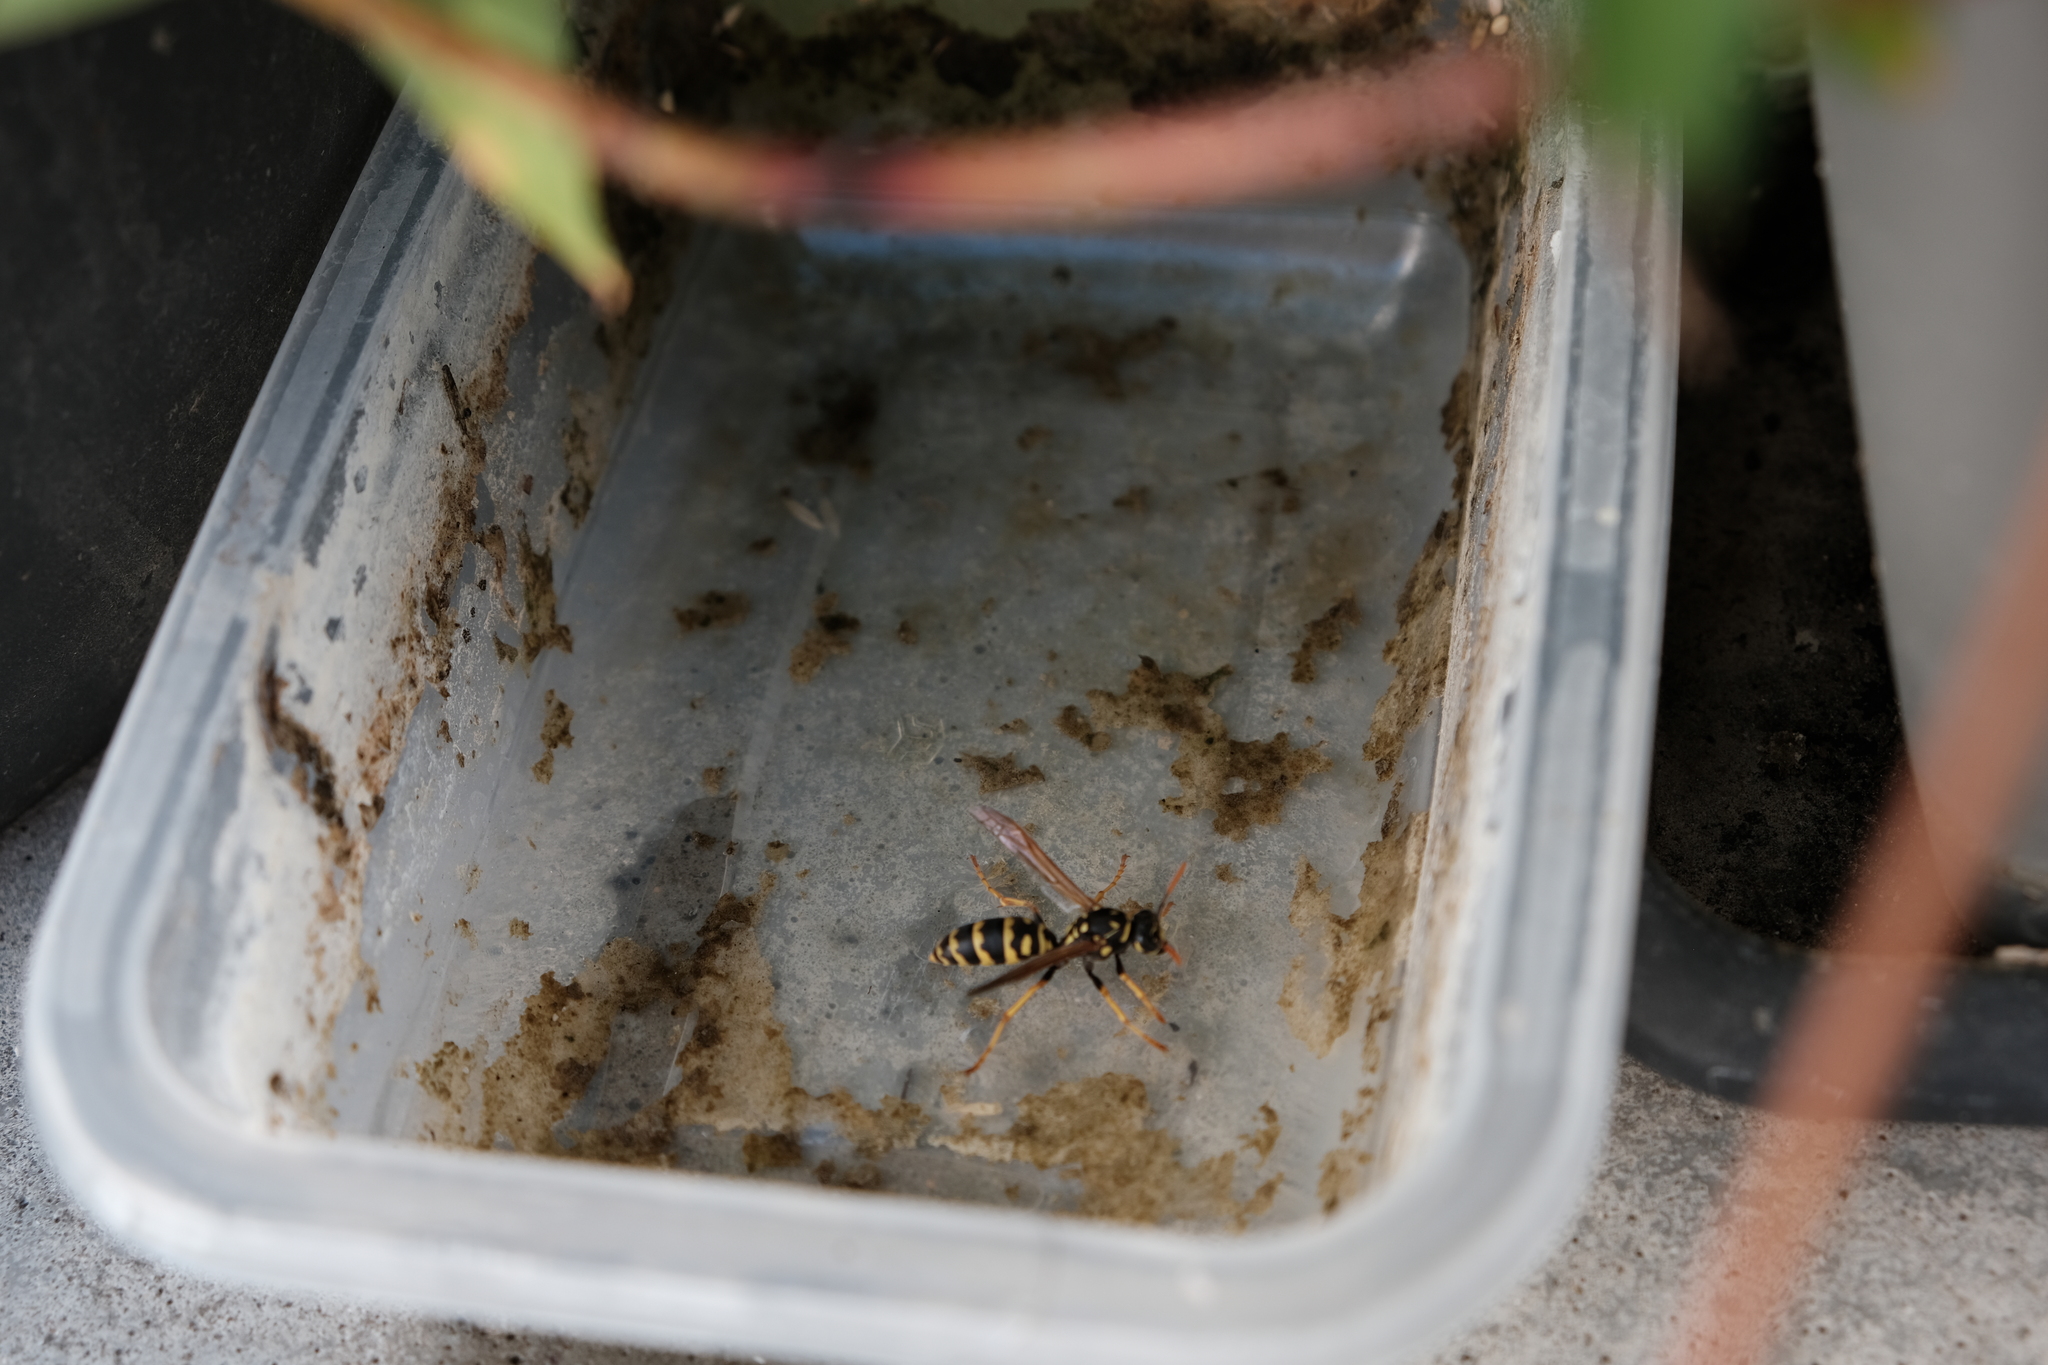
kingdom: Animalia
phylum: Arthropoda
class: Insecta
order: Hymenoptera
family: Eumenidae
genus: Polistes
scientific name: Polistes dominula
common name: Paper wasp
